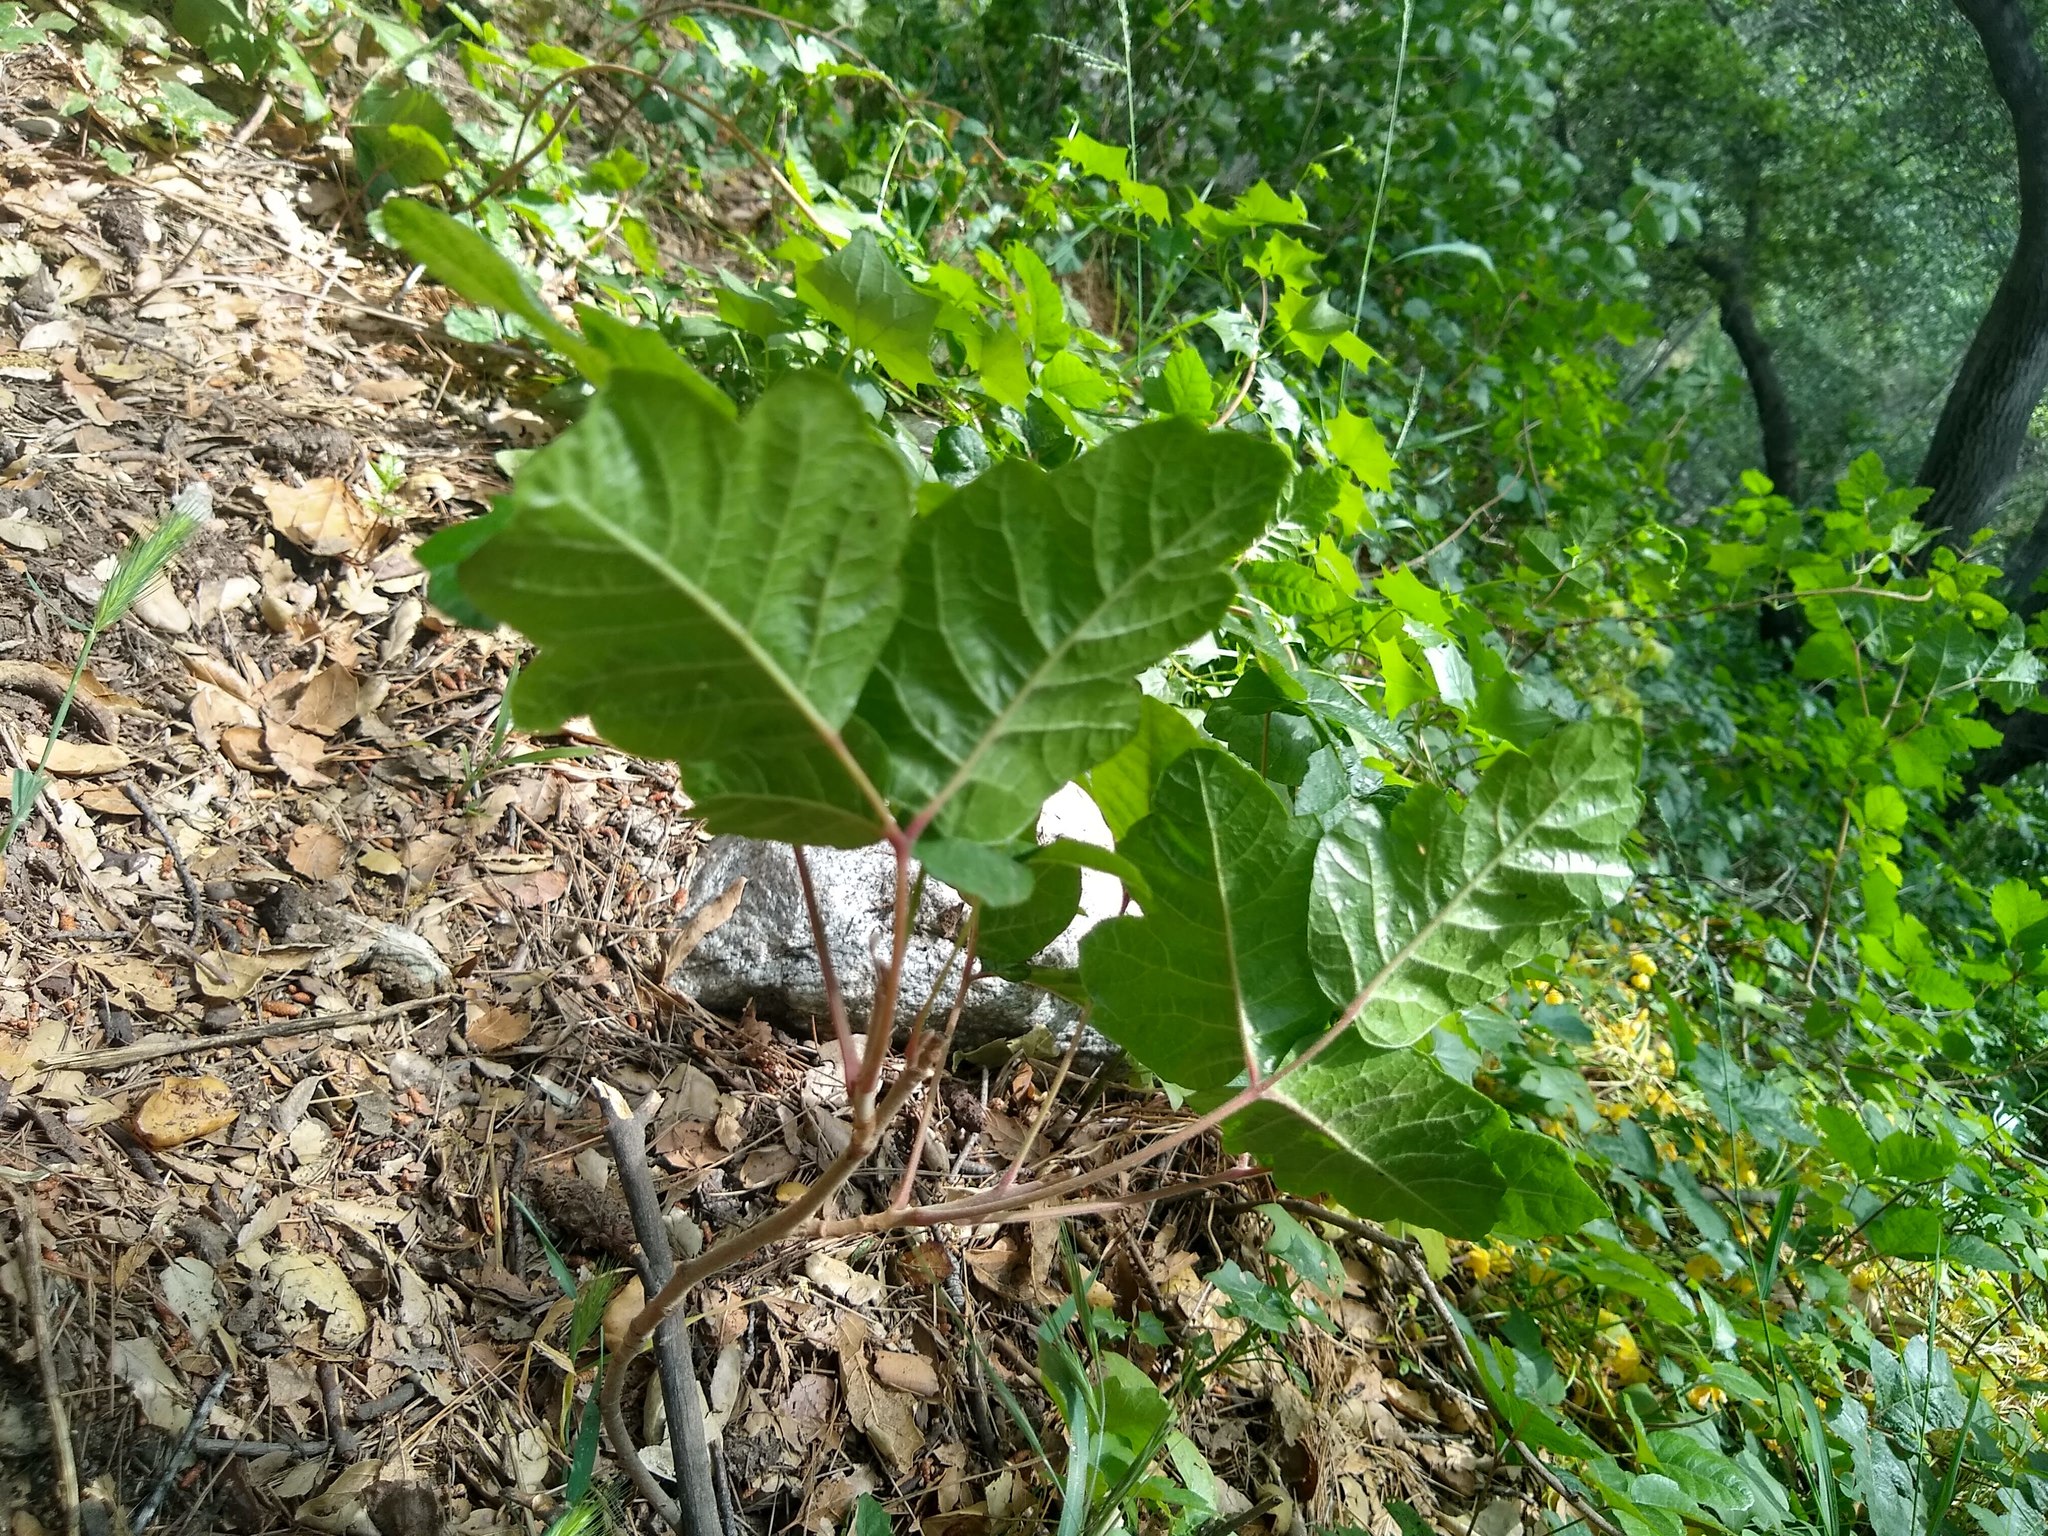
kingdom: Plantae
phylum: Tracheophyta
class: Magnoliopsida
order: Sapindales
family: Anacardiaceae
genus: Toxicodendron
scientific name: Toxicodendron diversilobum
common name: Pacific poison-oak
